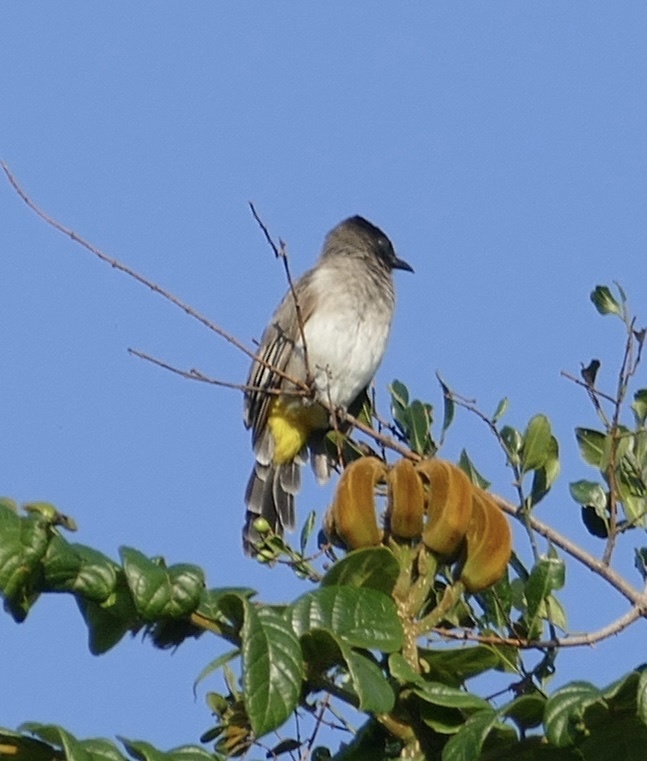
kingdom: Animalia
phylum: Chordata
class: Aves
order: Passeriformes
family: Pycnonotidae
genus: Pycnonotus
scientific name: Pycnonotus barbatus
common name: Common bulbul
